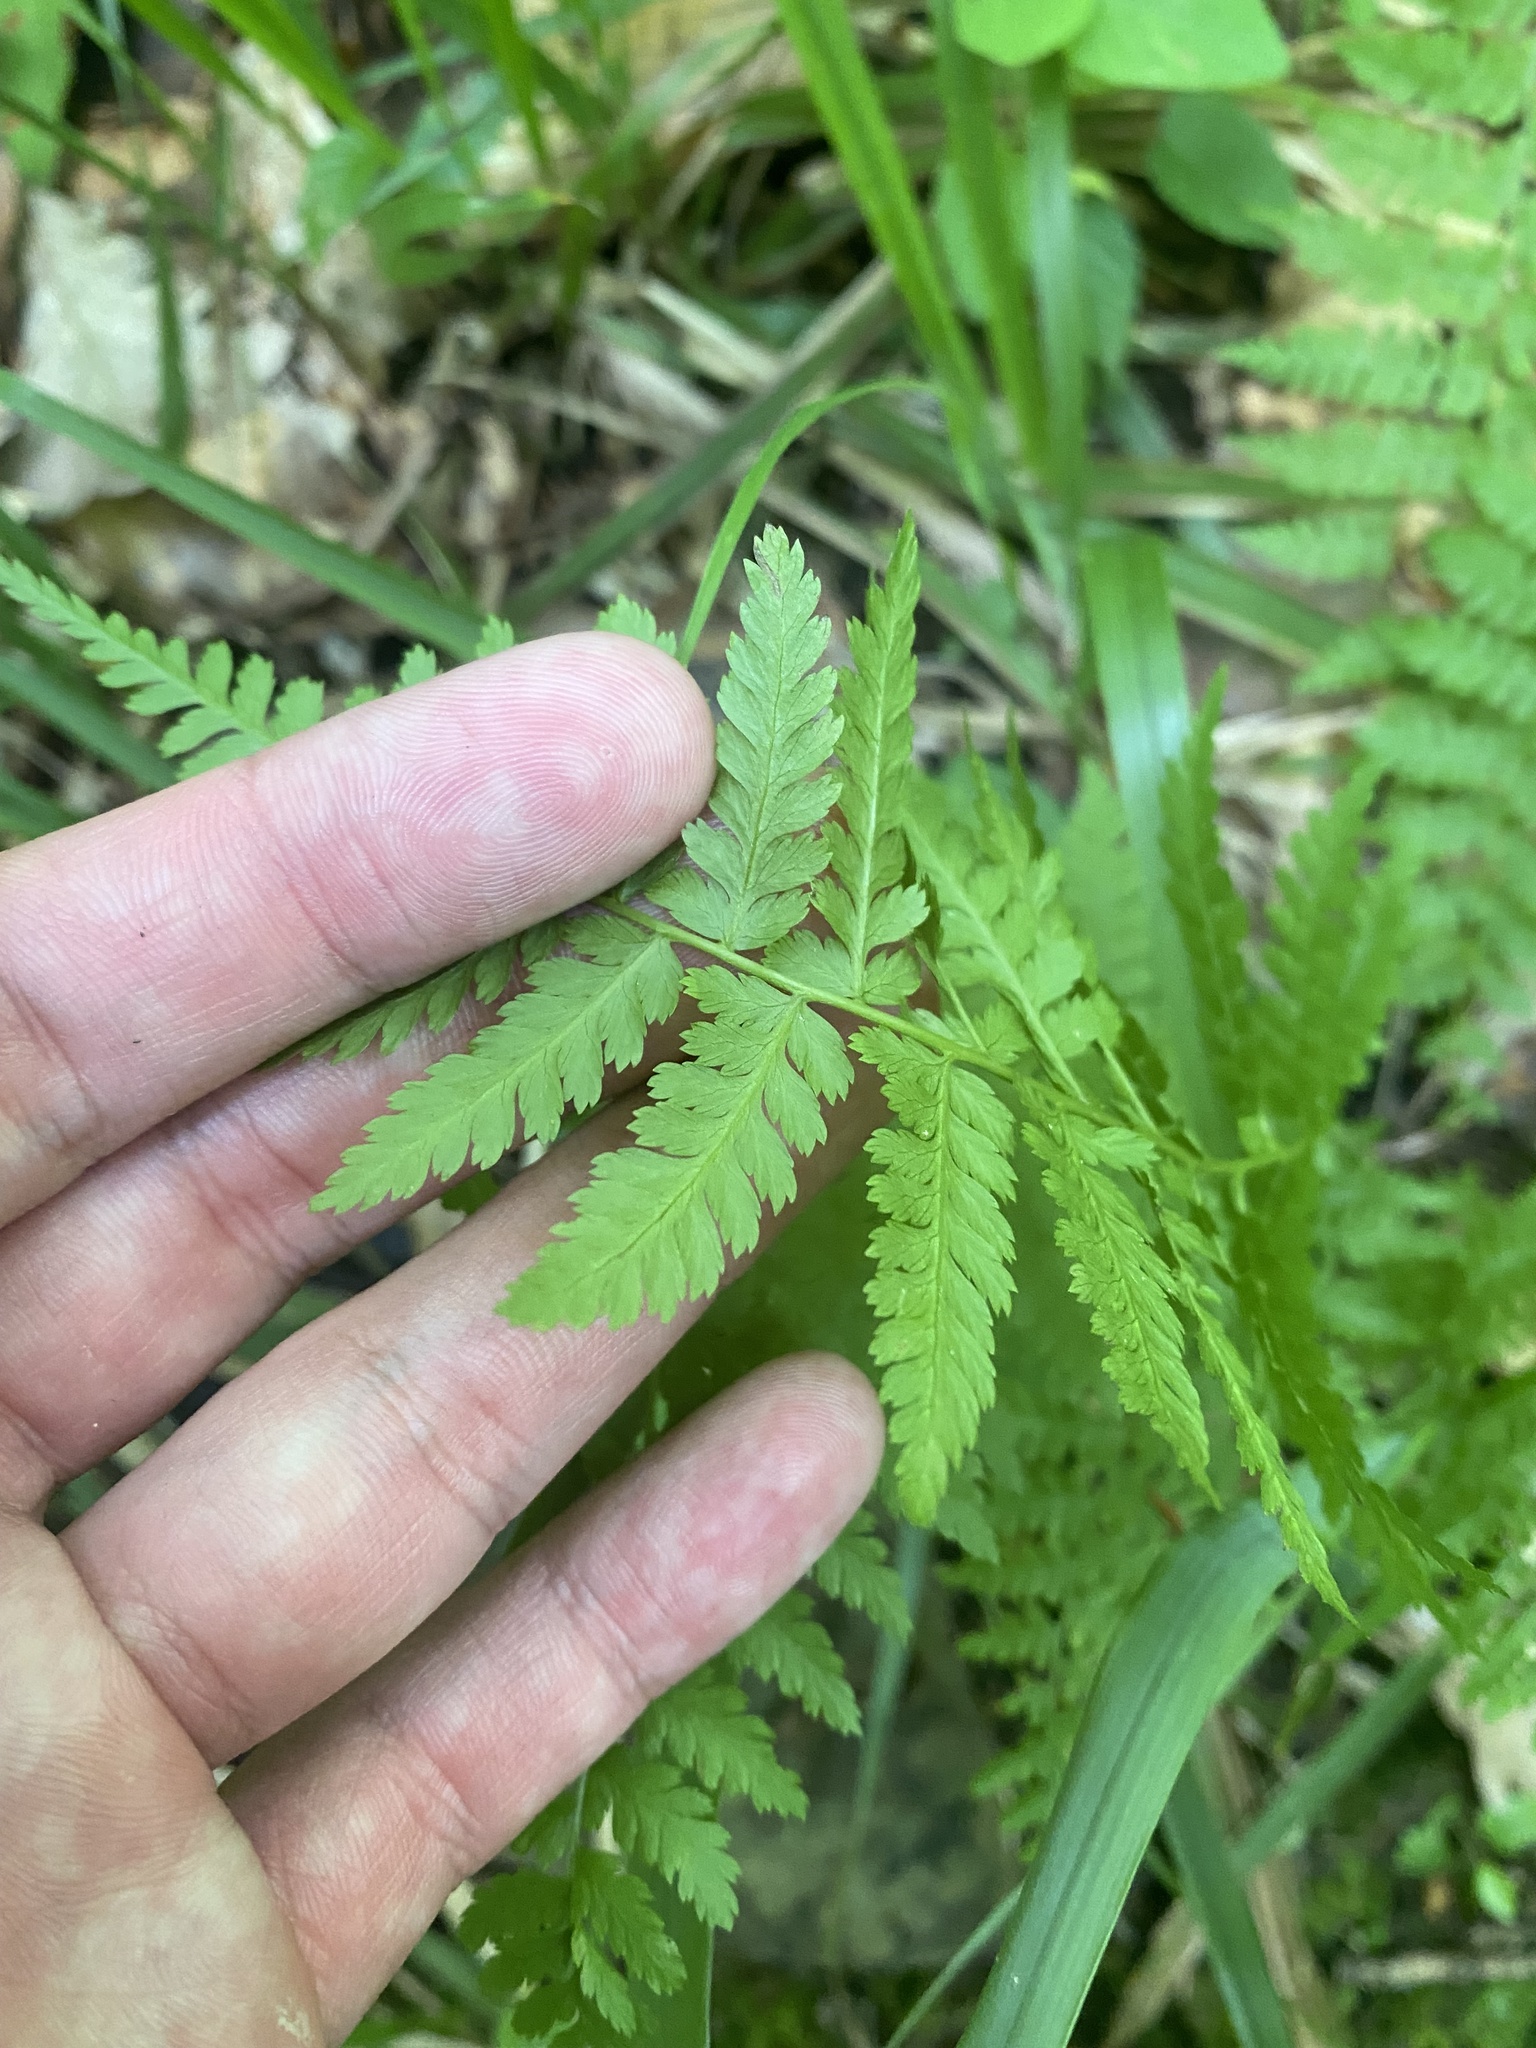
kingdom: Plantae
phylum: Tracheophyta
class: Polypodiopsida
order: Polypodiales
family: Athyriaceae
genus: Athyrium
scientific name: Athyrium filix-femina
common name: Lady fern
